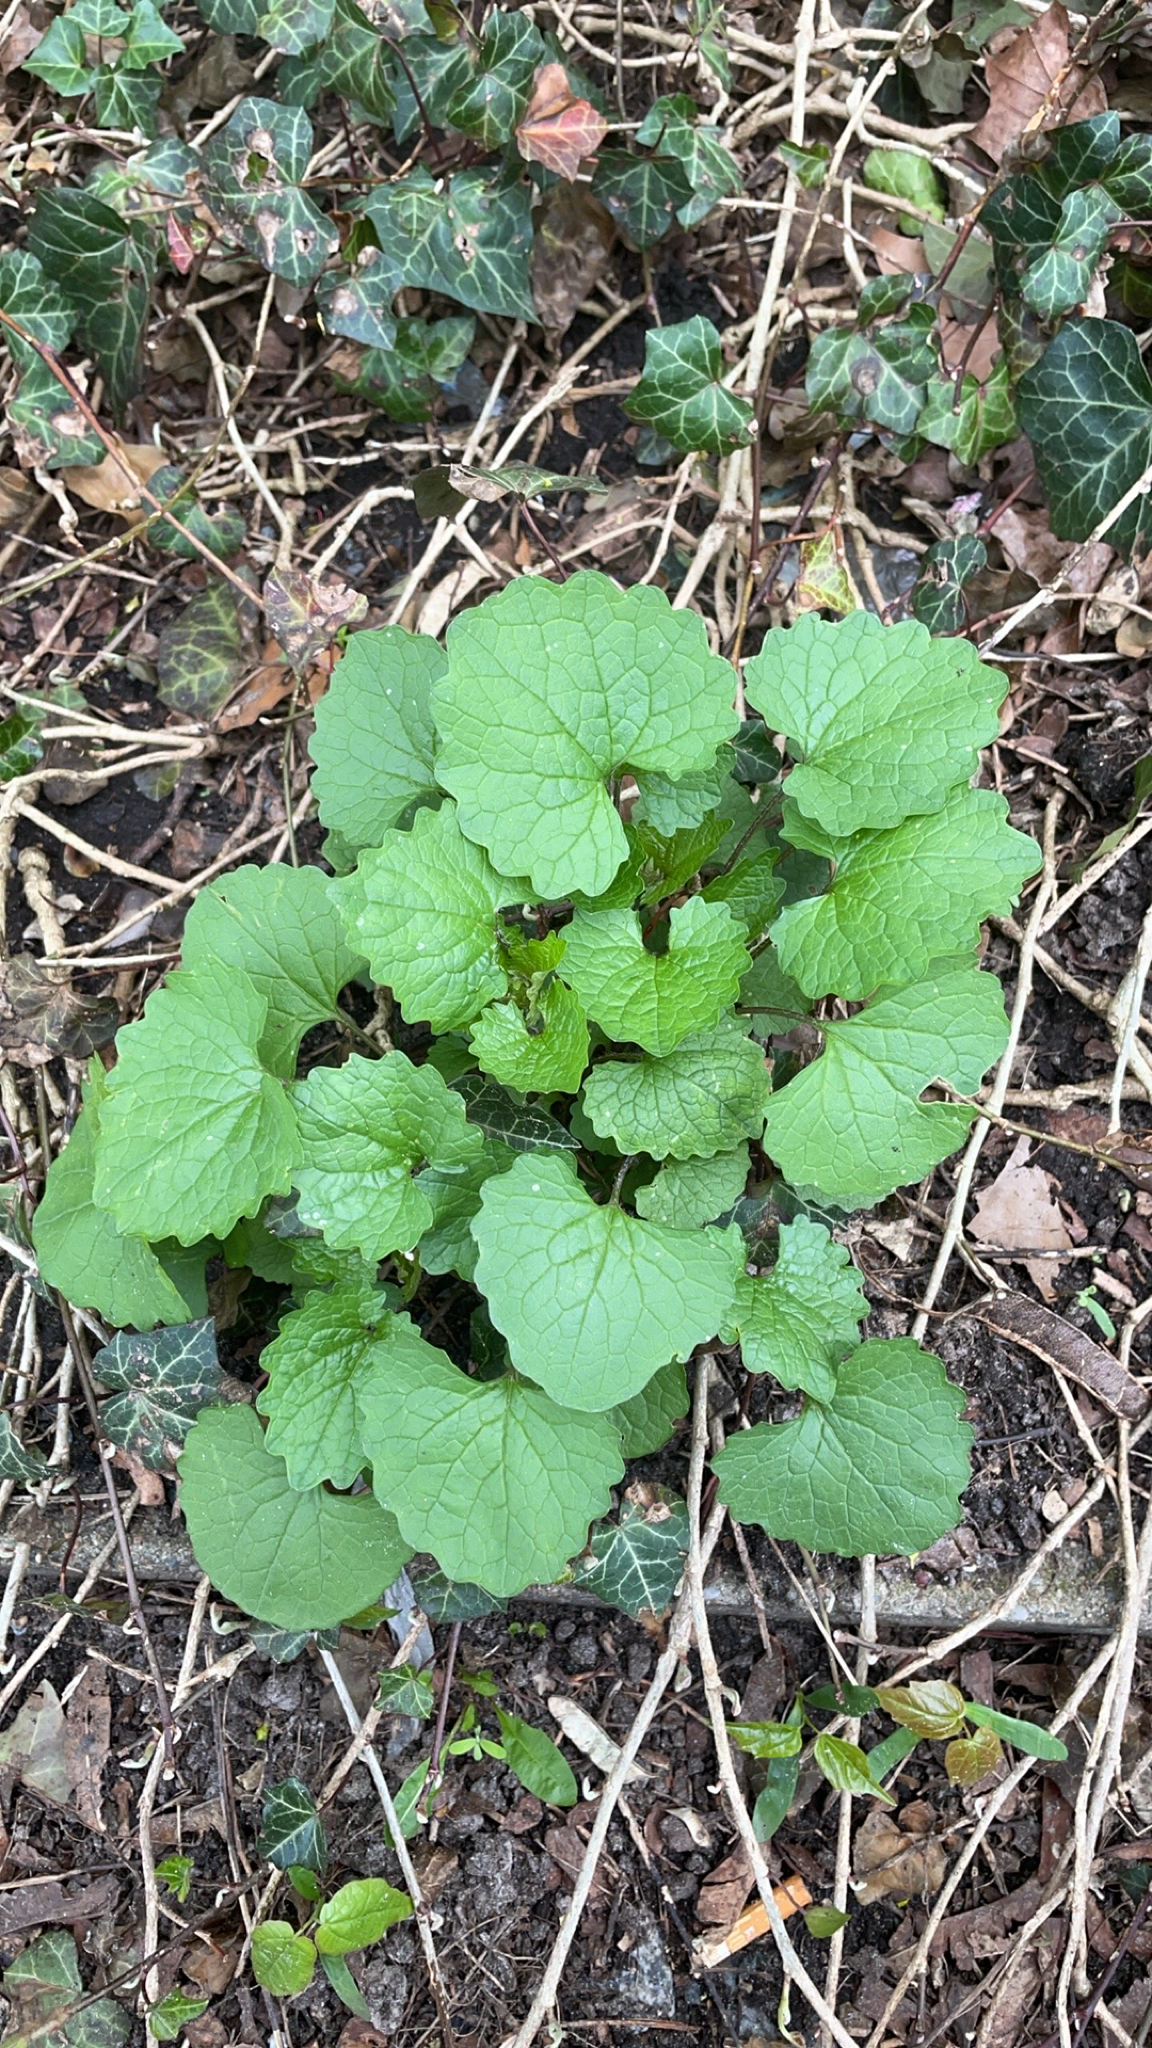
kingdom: Plantae
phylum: Tracheophyta
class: Magnoliopsida
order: Brassicales
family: Brassicaceae
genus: Alliaria
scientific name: Alliaria petiolata
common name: Garlic mustard
